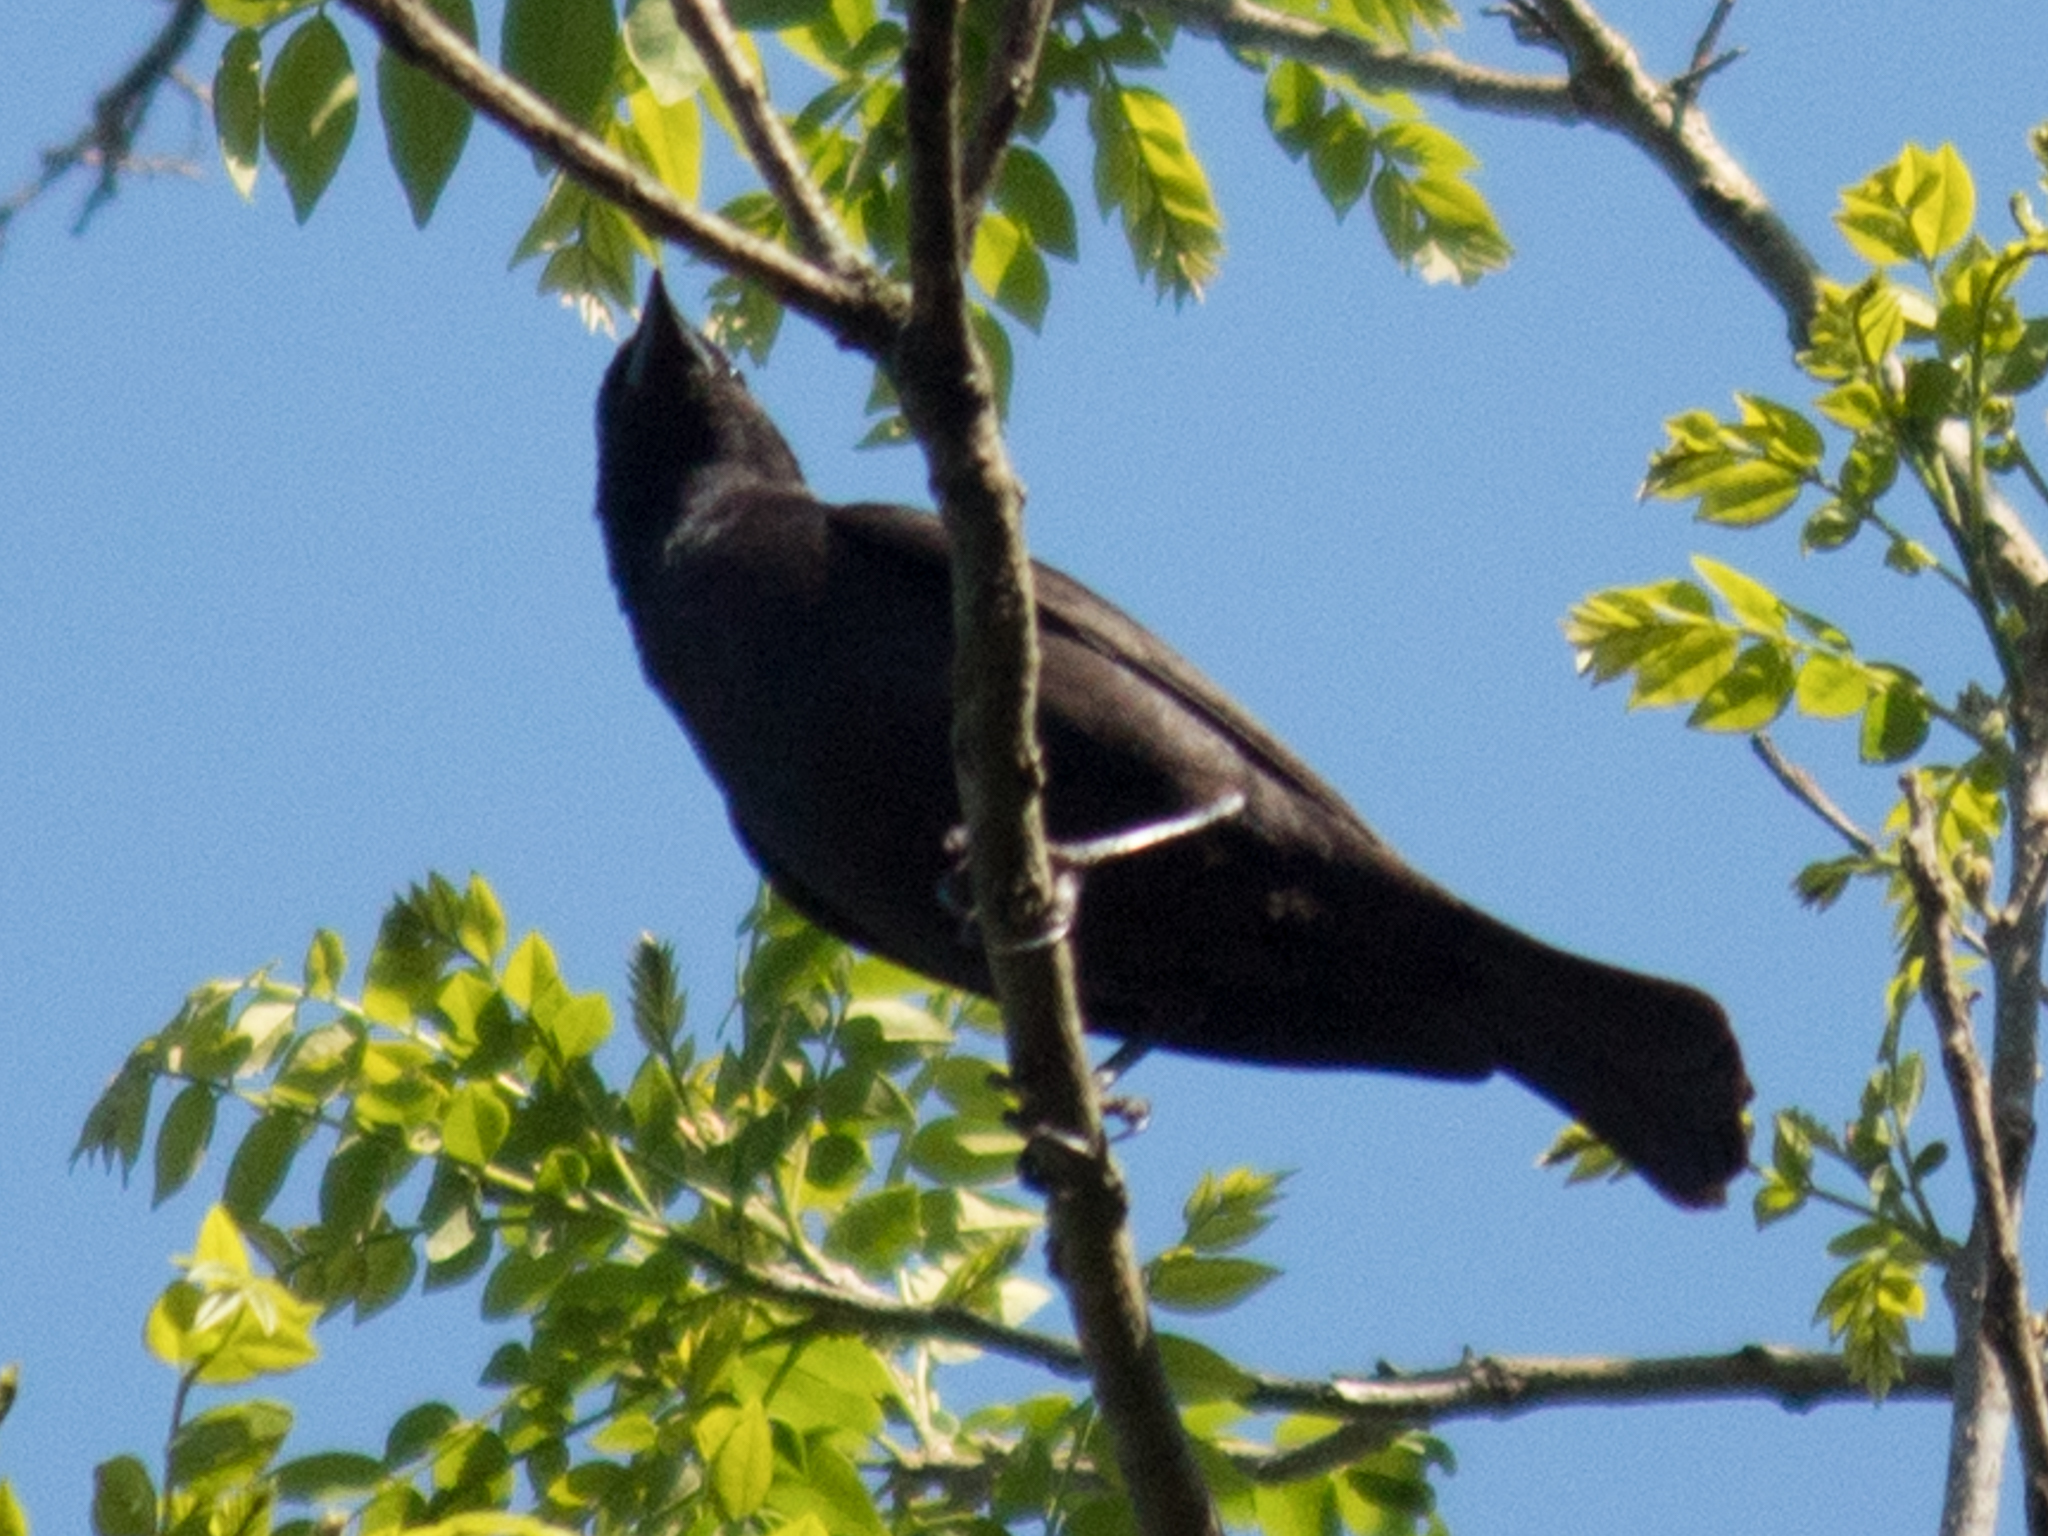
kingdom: Animalia
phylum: Chordata
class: Aves
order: Passeriformes
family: Icteridae
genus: Gnorimopsar
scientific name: Gnorimopsar chopi
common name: Chopi blackbird
